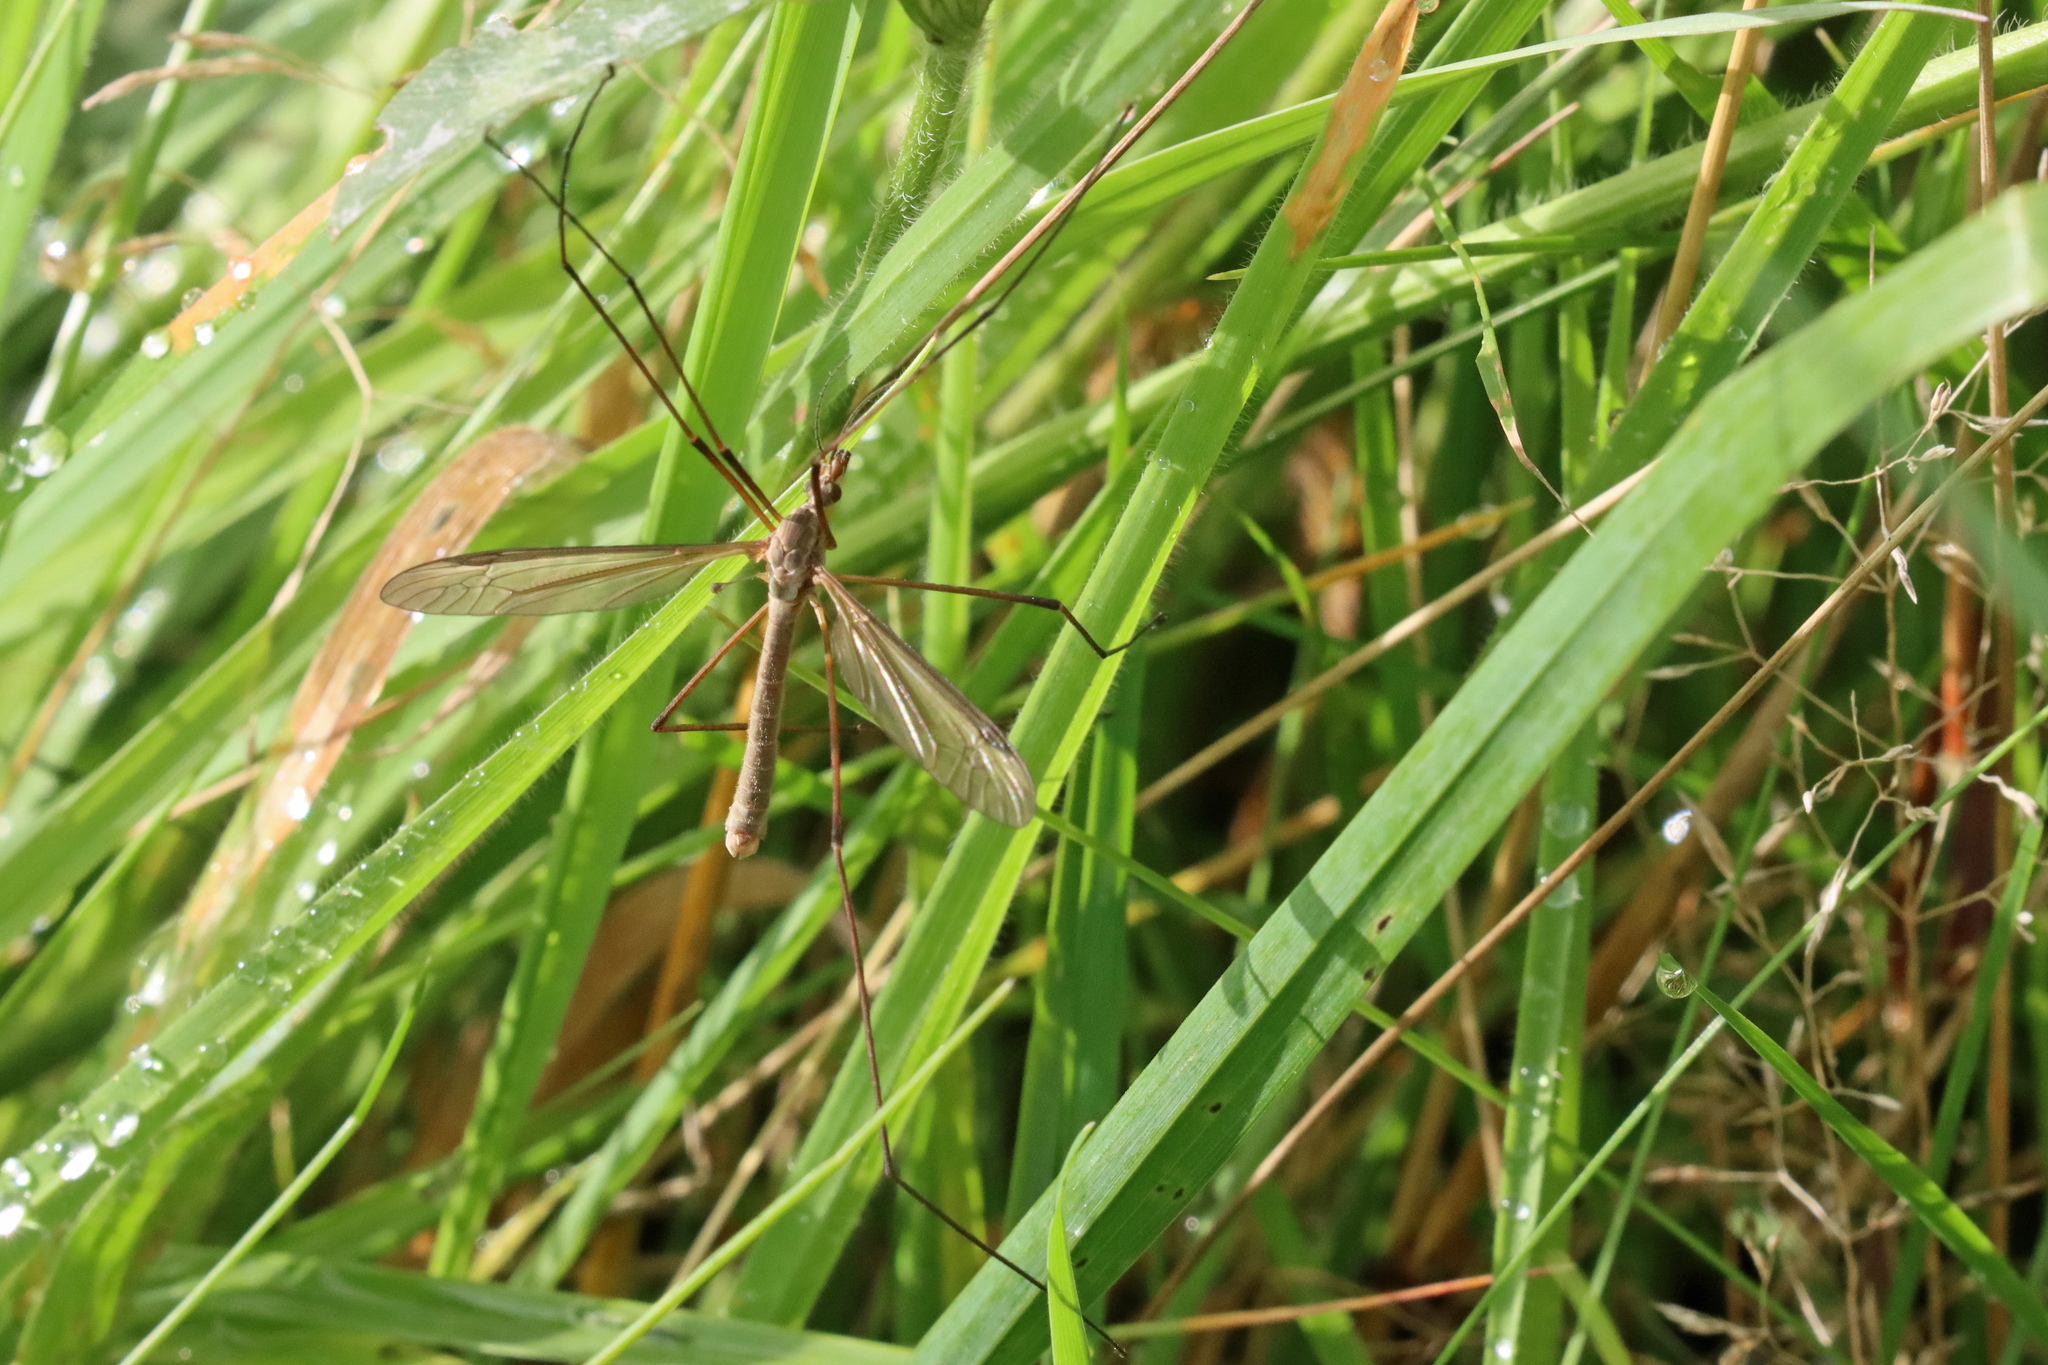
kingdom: Animalia
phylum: Arthropoda
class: Insecta
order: Diptera
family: Tipulidae
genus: Tipula
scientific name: Tipula paludosa
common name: European cranefly
